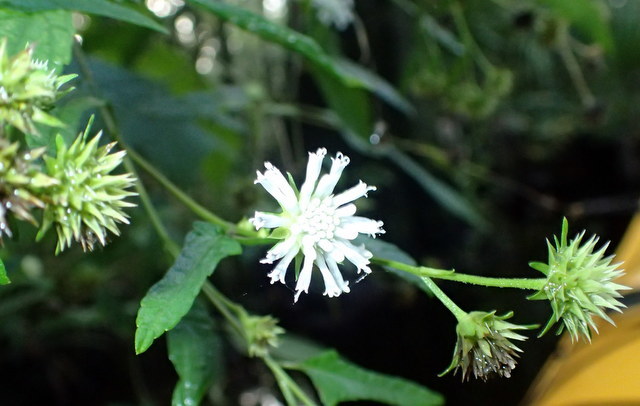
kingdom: Plantae
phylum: Tracheophyta
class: Magnoliopsida
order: Asterales
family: Asteraceae
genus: Melanthera
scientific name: Melanthera nivea
